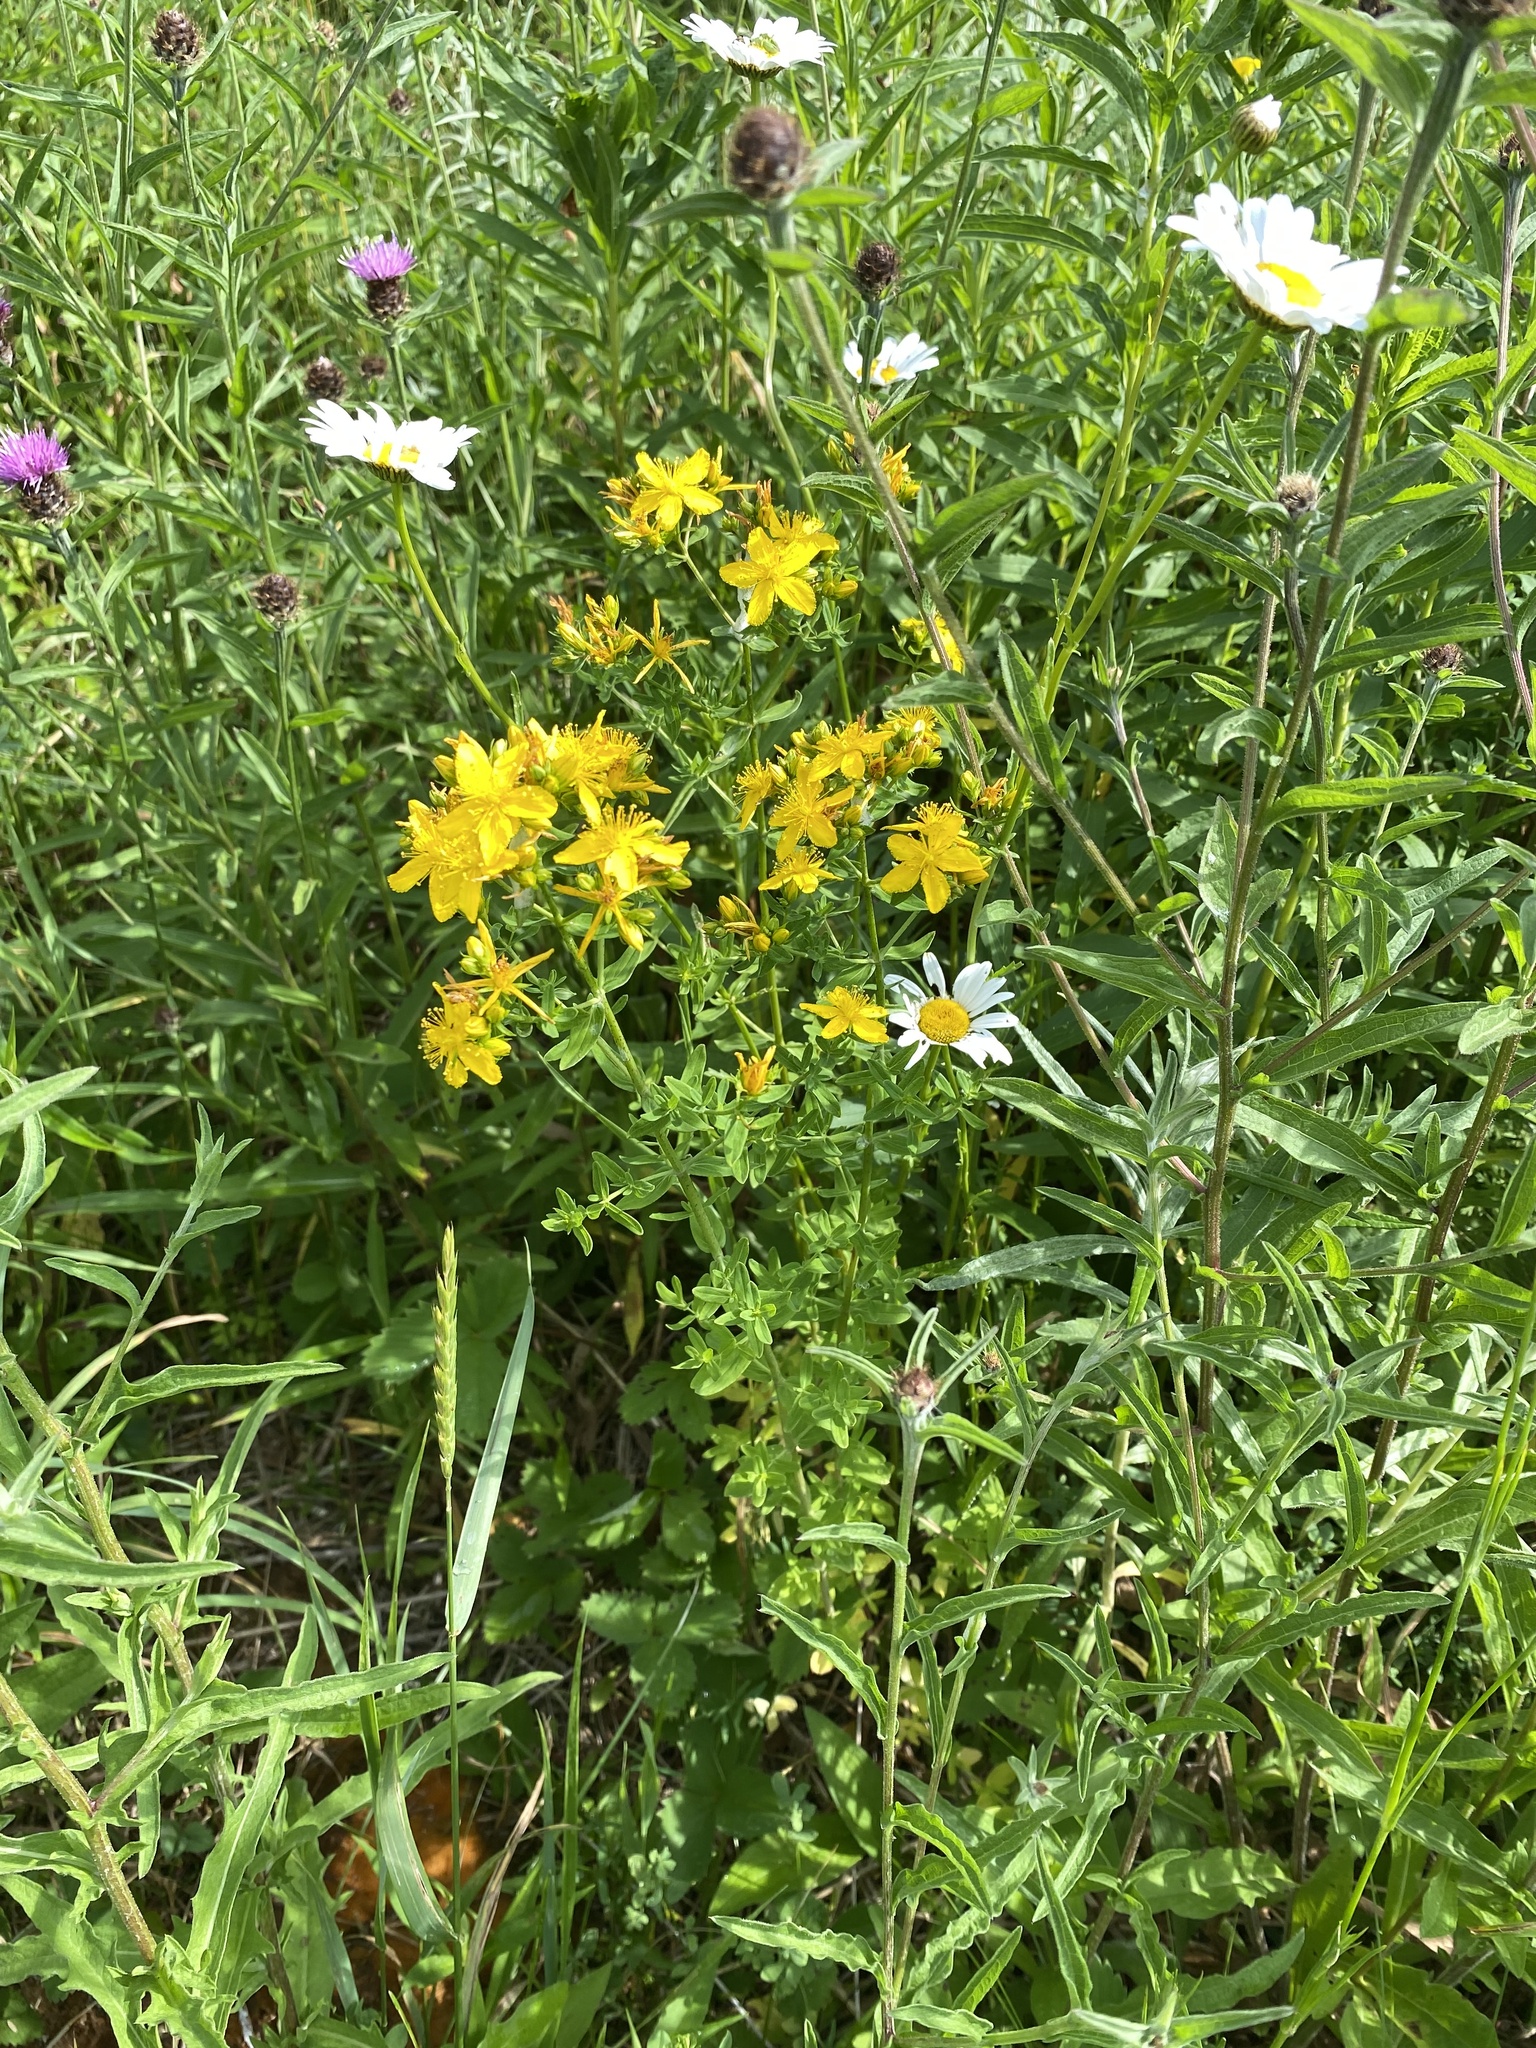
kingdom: Plantae
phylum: Tracheophyta
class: Magnoliopsida
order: Malpighiales
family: Hypericaceae
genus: Hypericum
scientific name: Hypericum perforatum
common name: Common st. johnswort
